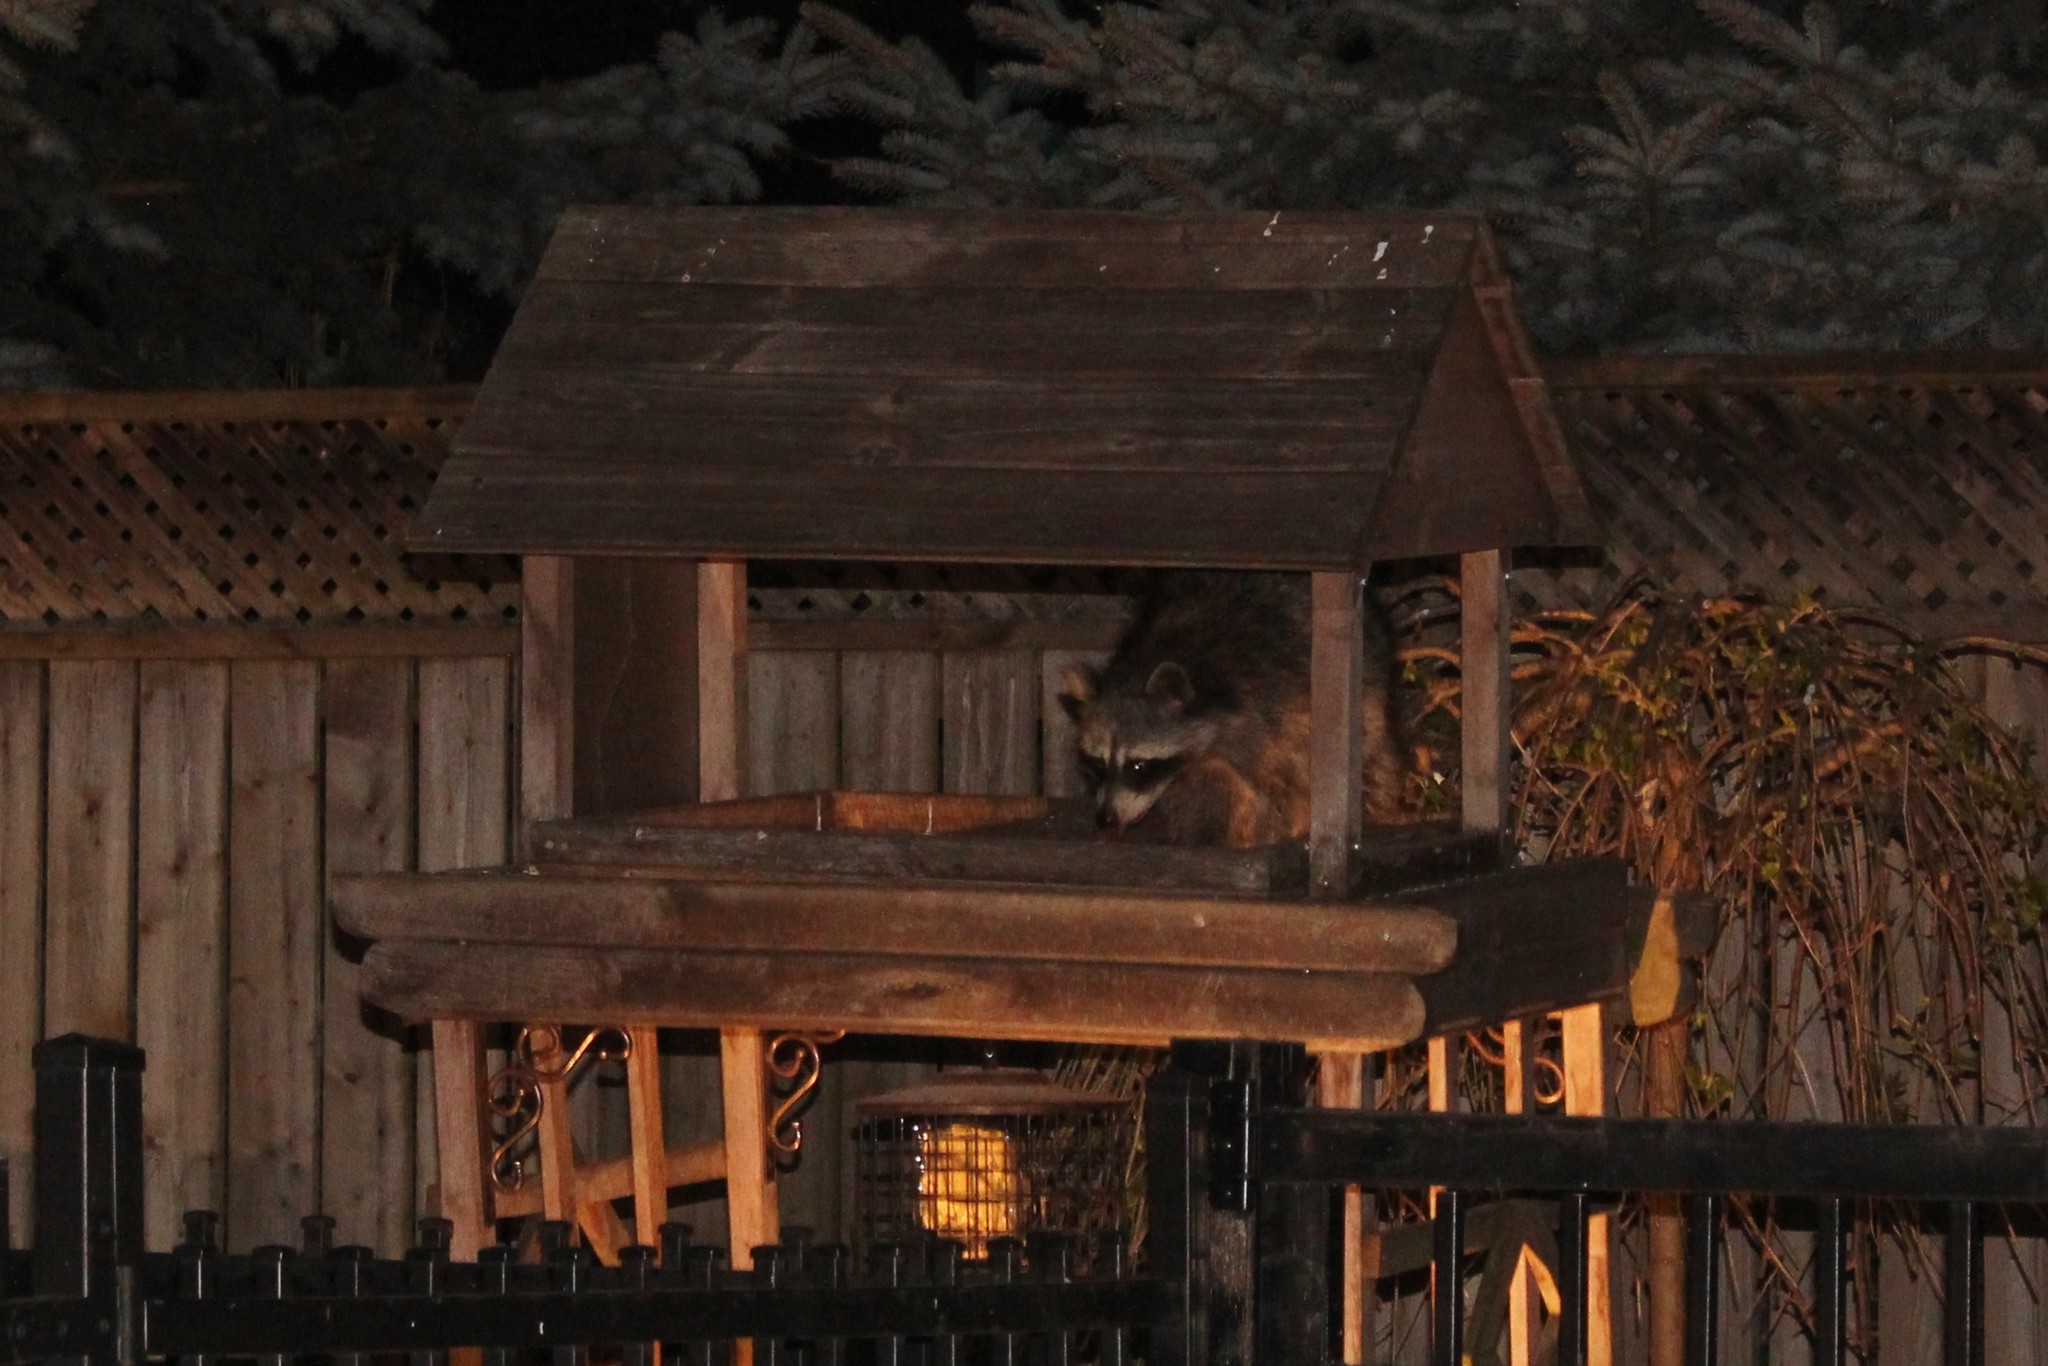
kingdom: Animalia
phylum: Chordata
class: Mammalia
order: Carnivora
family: Procyonidae
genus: Procyon
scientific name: Procyon lotor
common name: Raccoon
